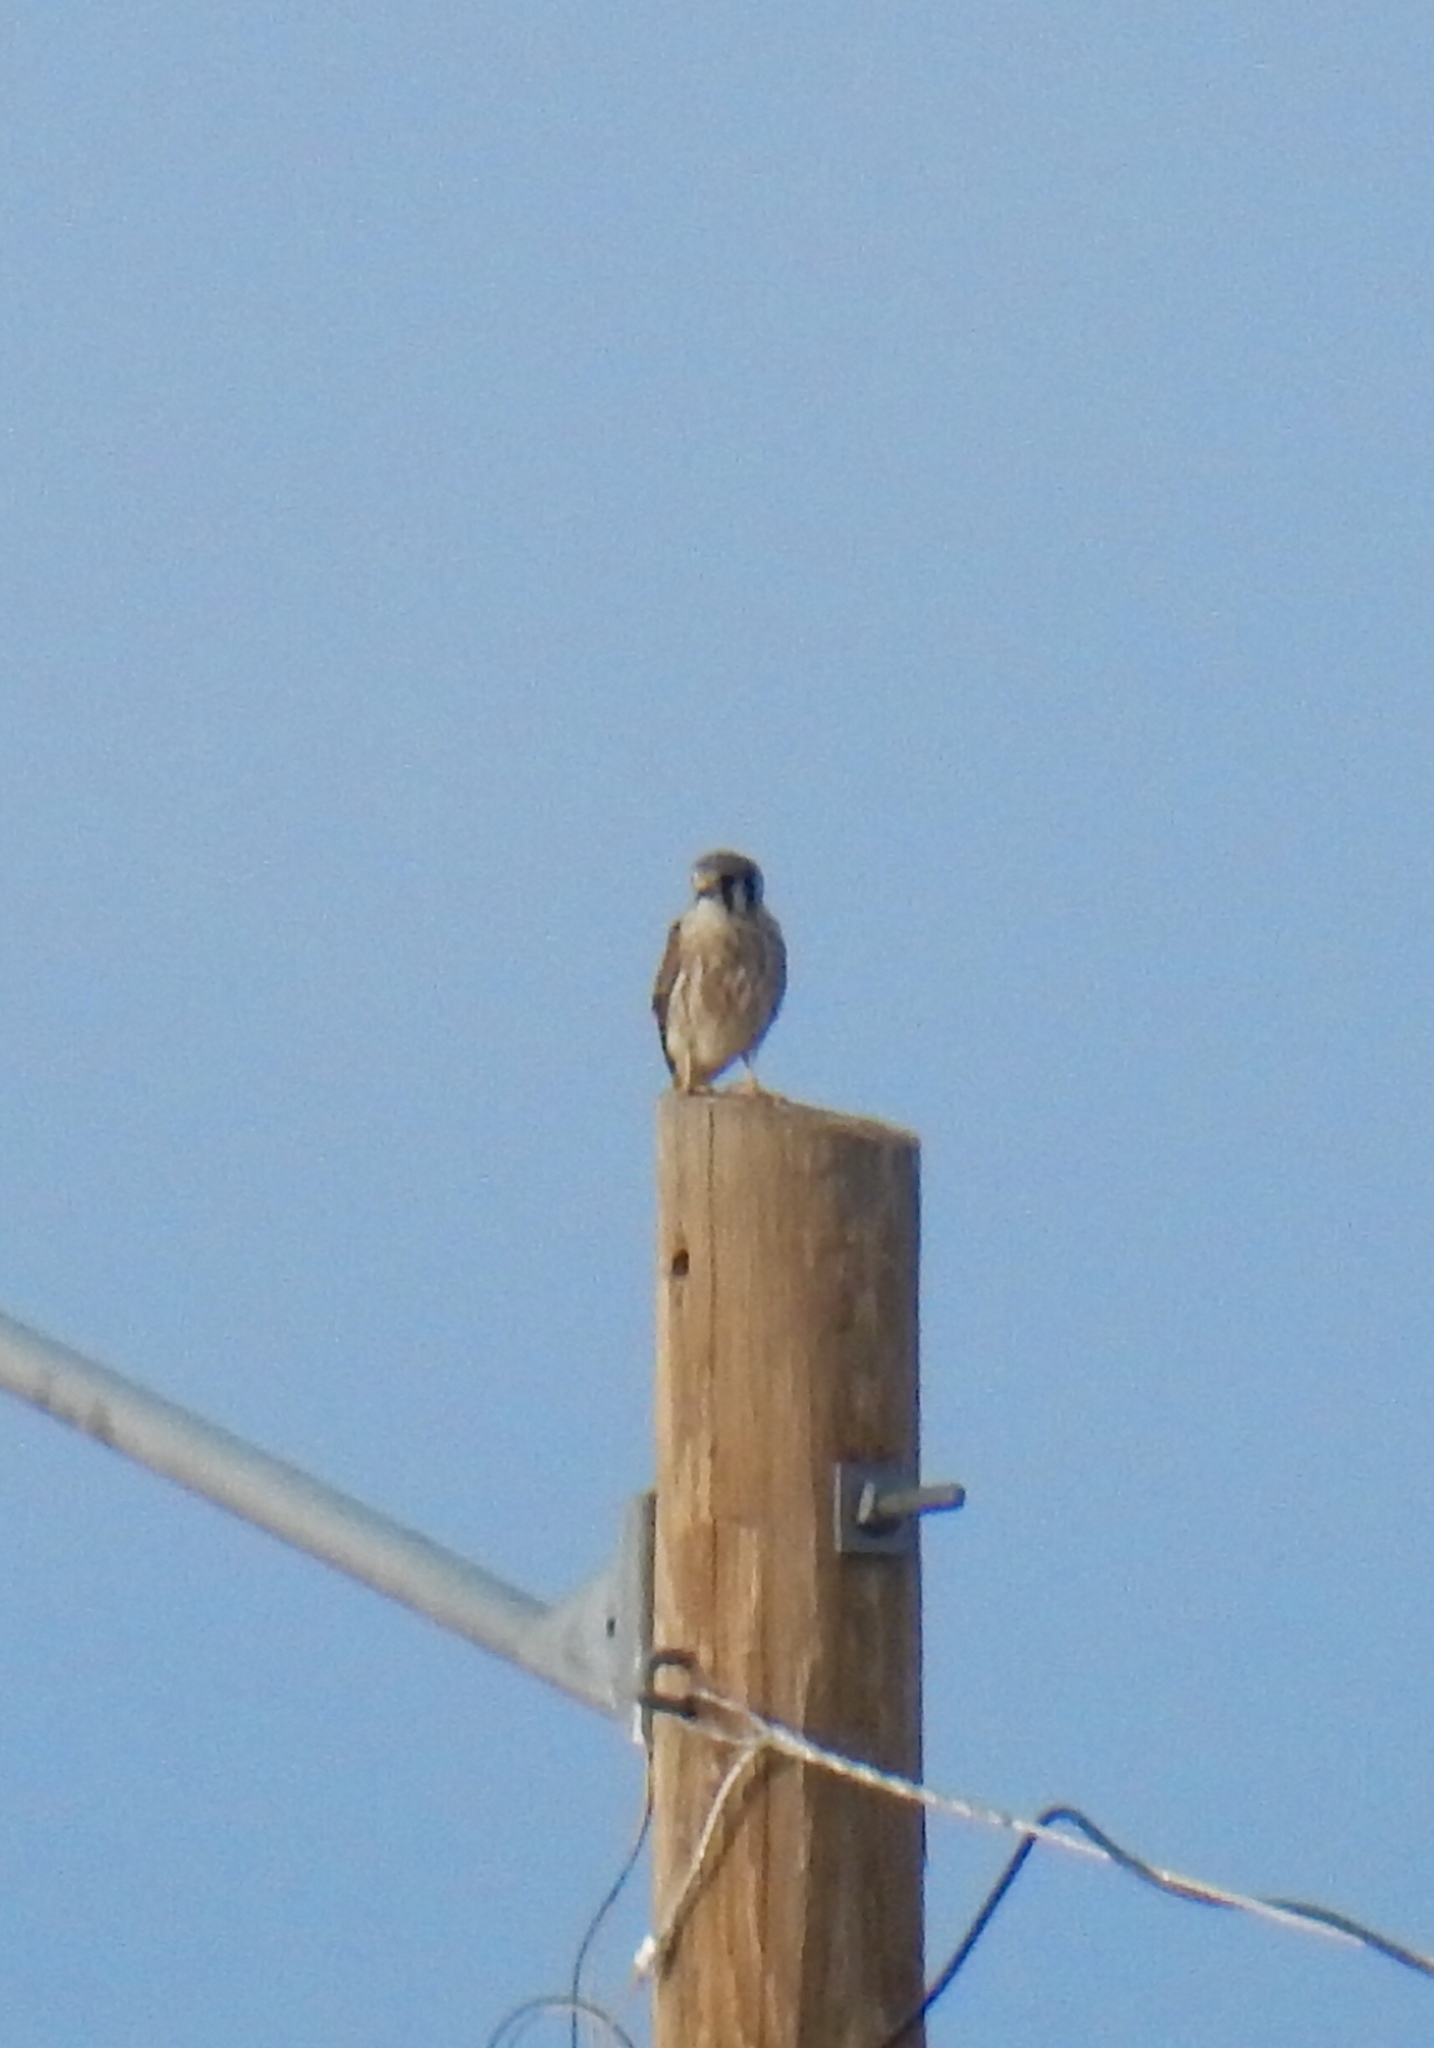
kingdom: Animalia
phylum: Chordata
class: Aves
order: Falconiformes
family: Falconidae
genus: Falco
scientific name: Falco sparverius
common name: American kestrel
